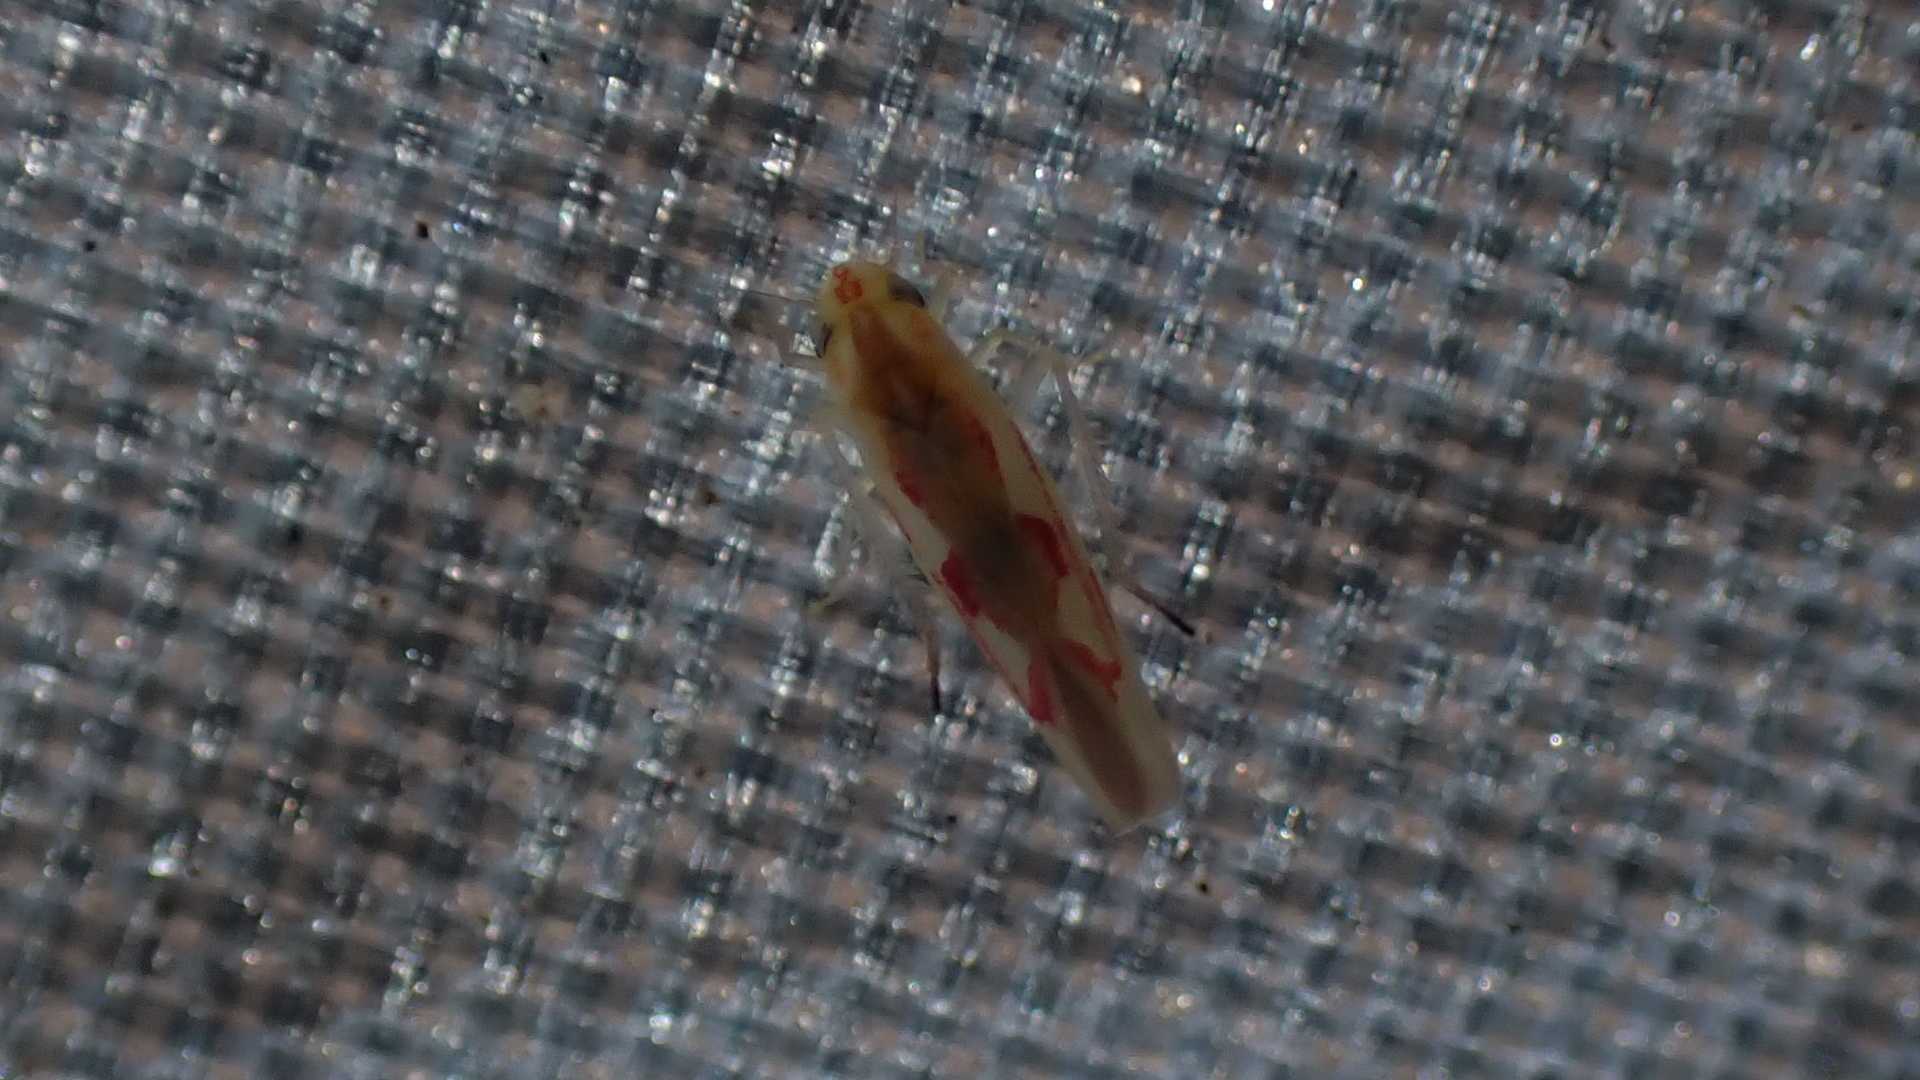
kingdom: Animalia
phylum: Arthropoda
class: Insecta
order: Hemiptera
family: Cicadellidae
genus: Zygina
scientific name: Zygina angusta
